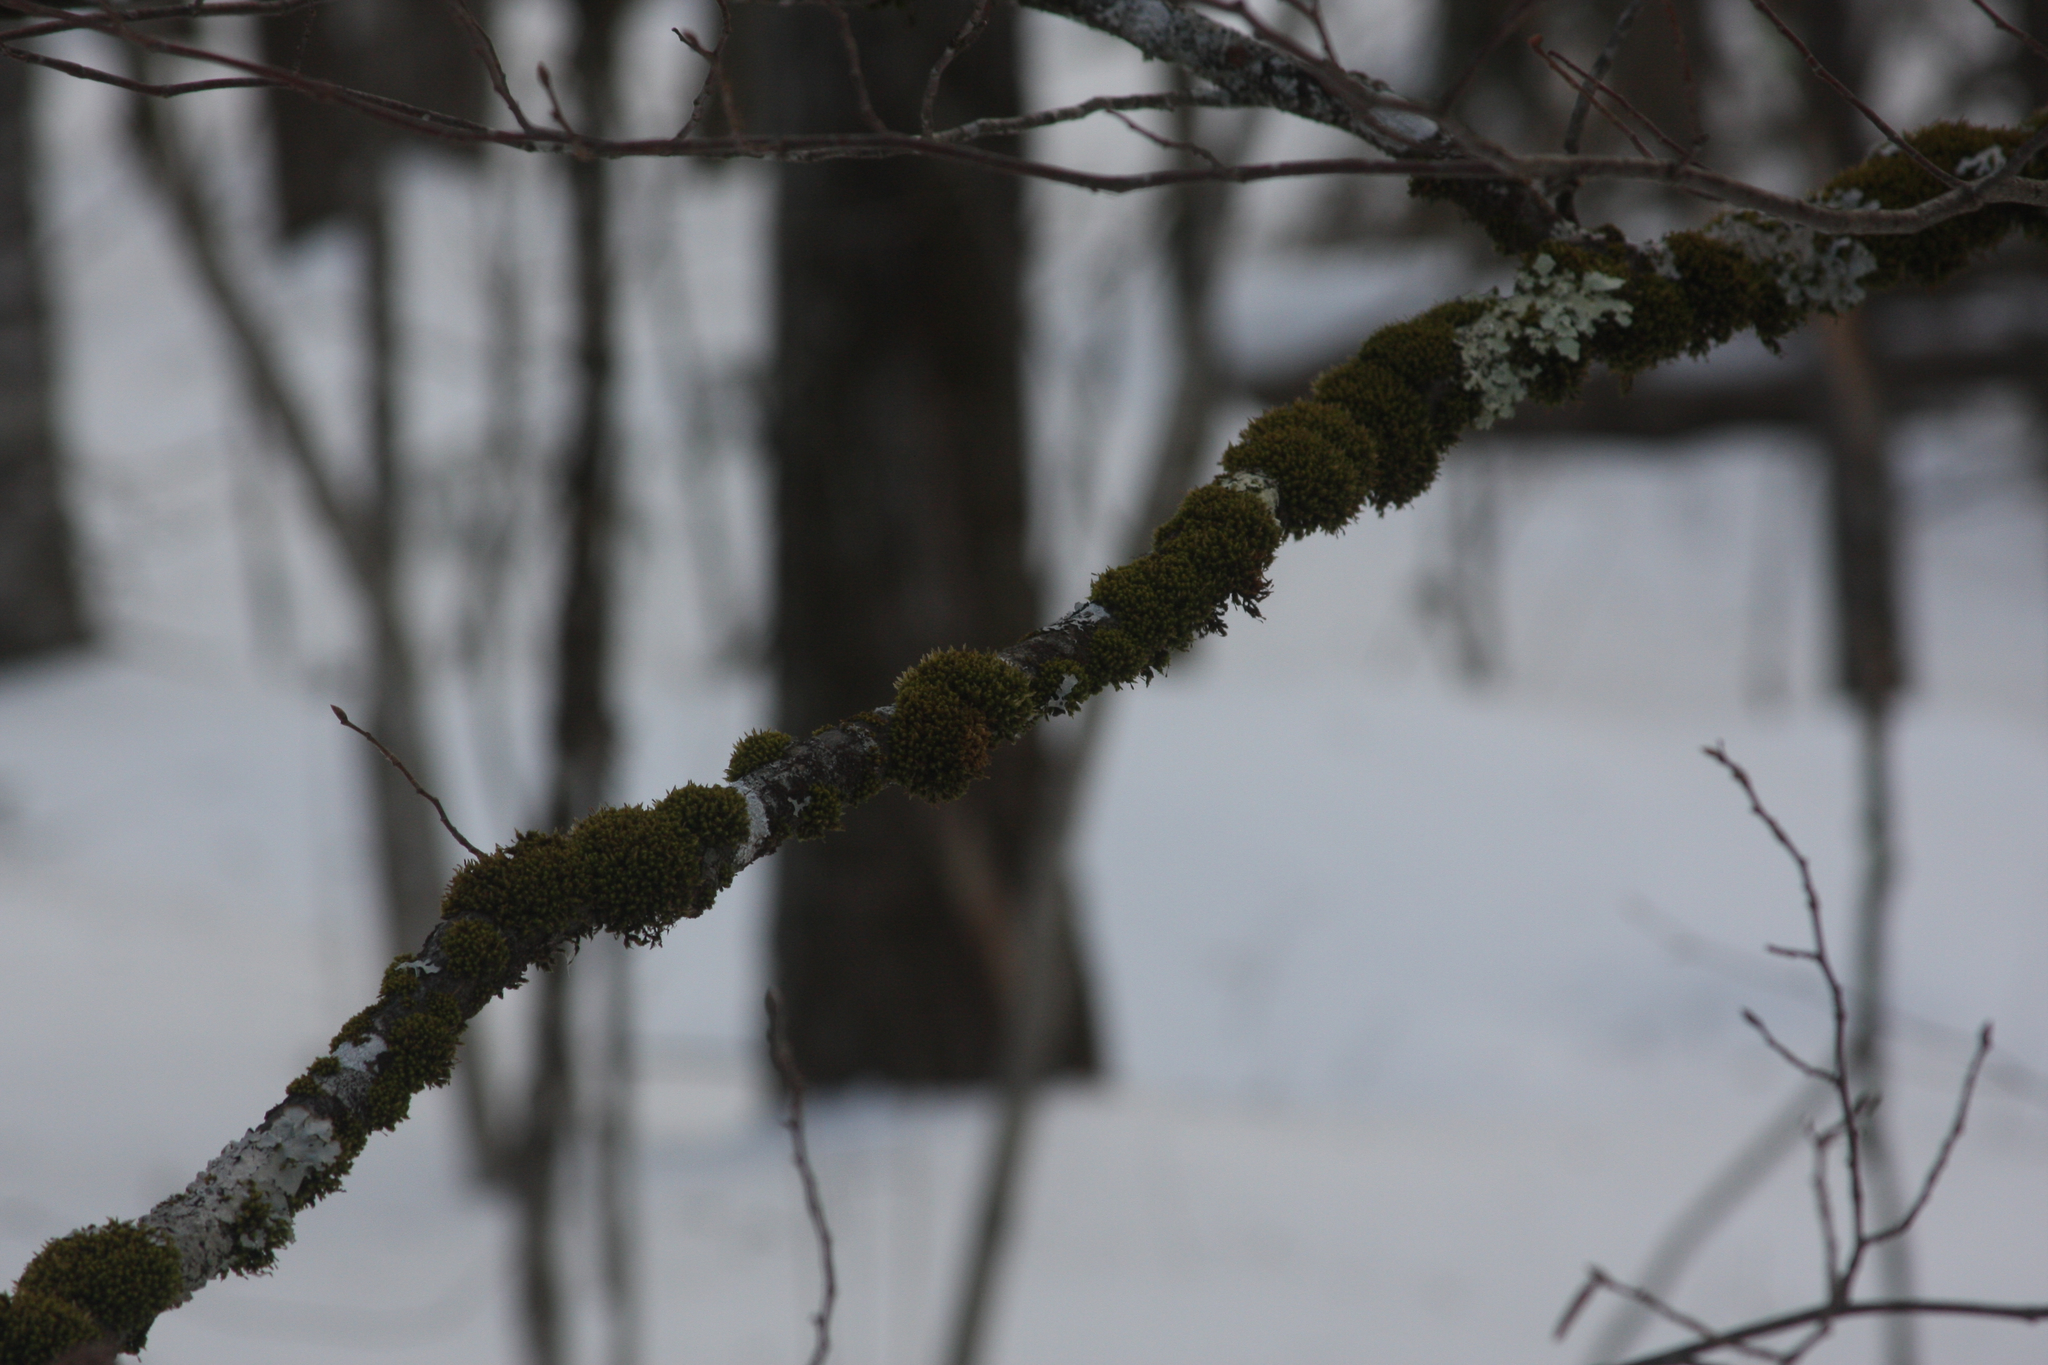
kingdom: Plantae
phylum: Bryophyta
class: Bryopsida
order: Orthotrichales
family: Orthotrichaceae
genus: Ulota
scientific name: Ulota crispa
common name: Crisped pincushion moss
